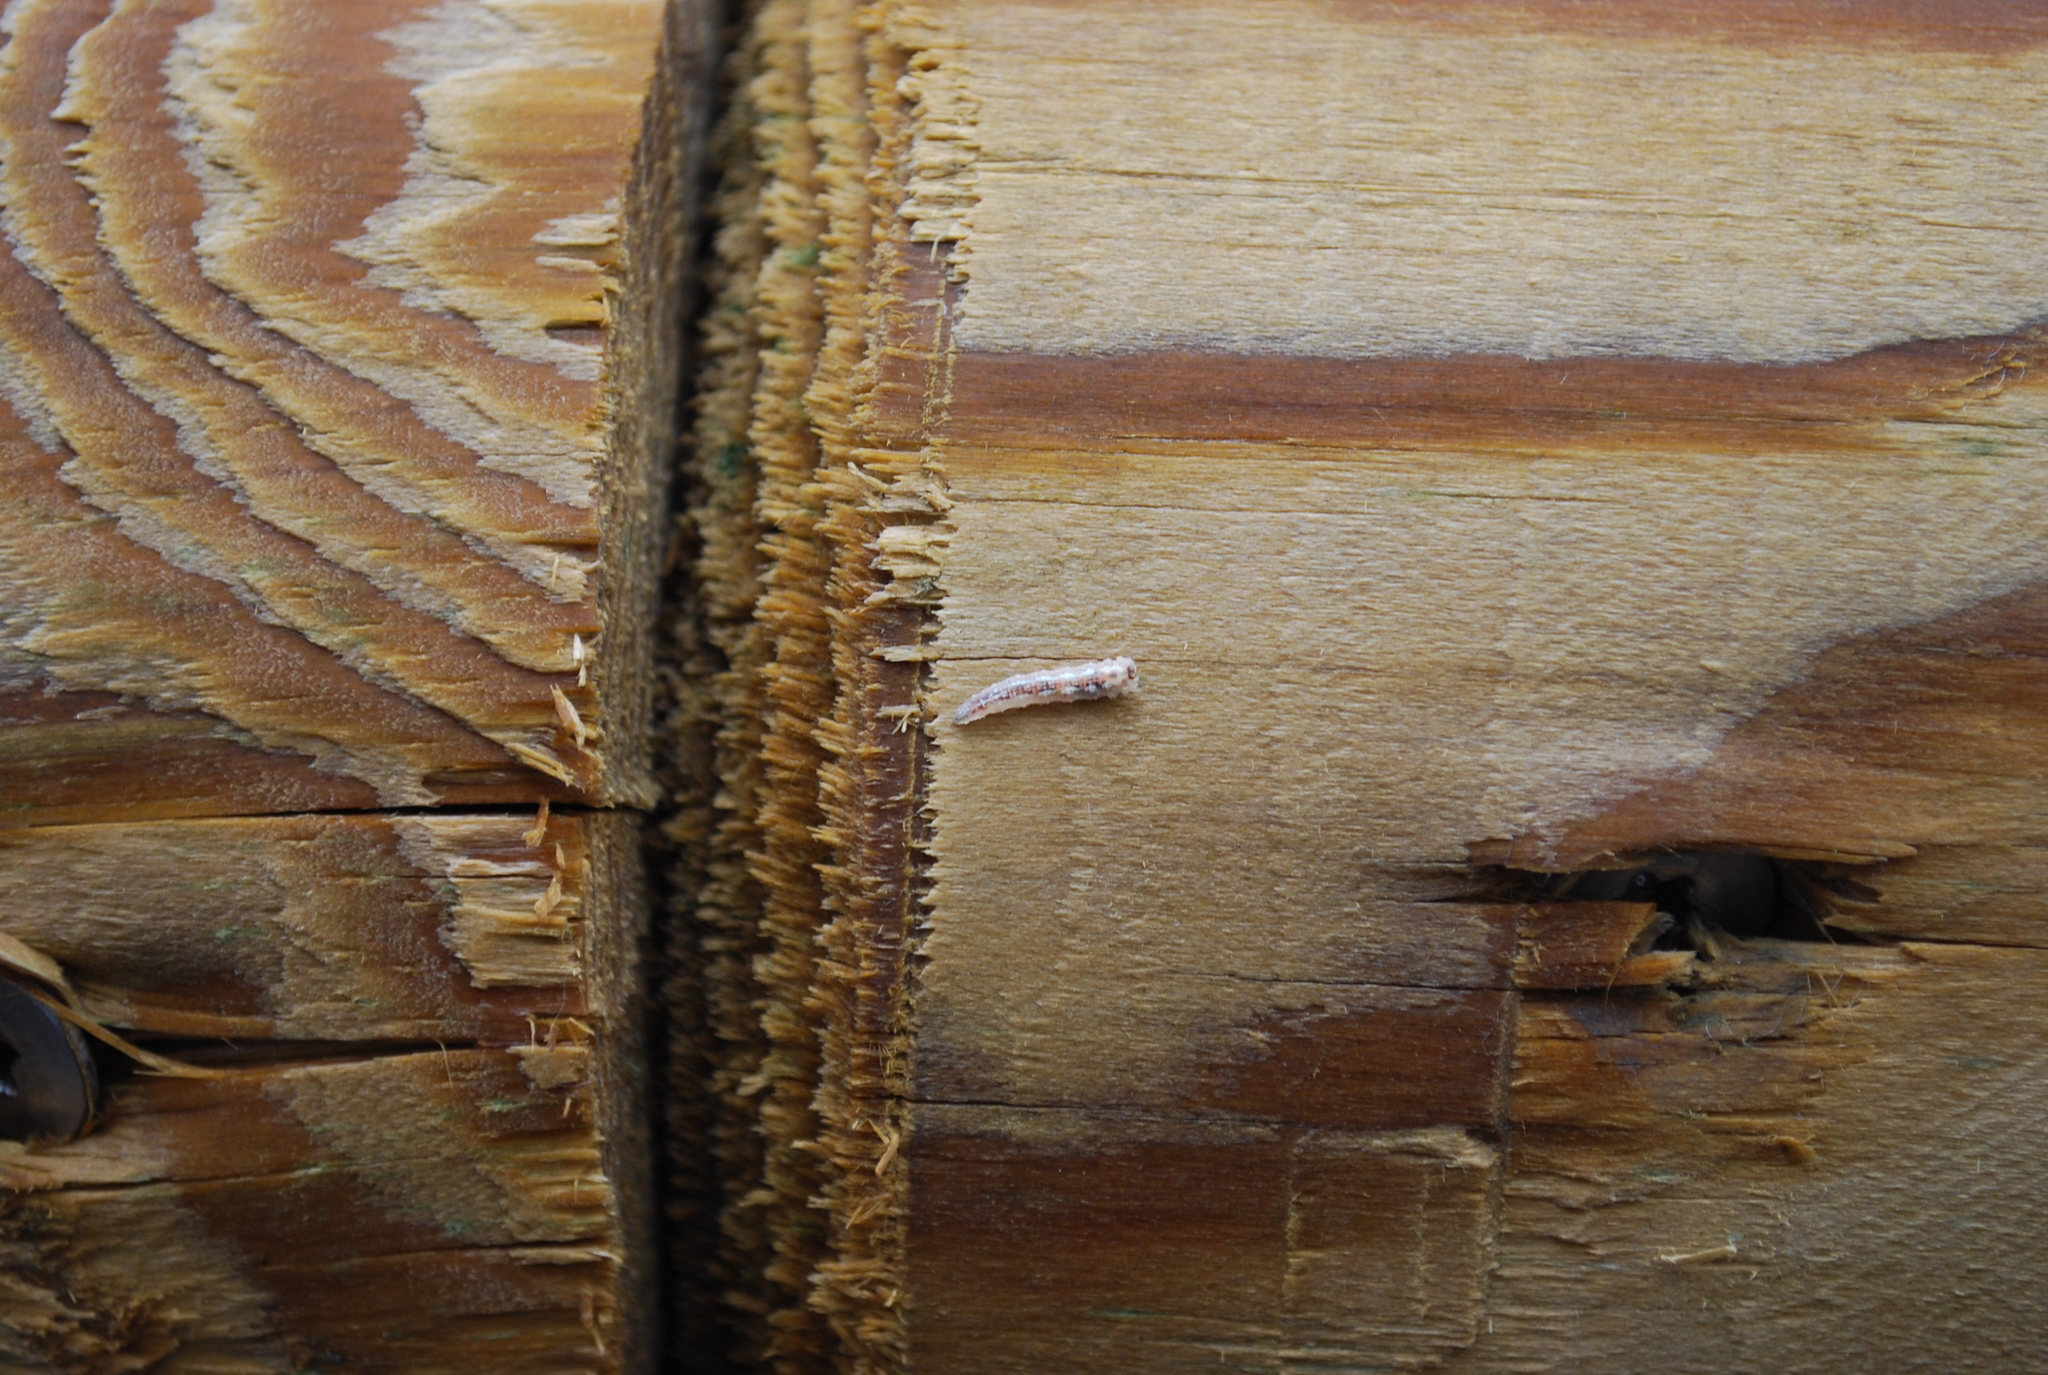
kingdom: Animalia
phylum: Arthropoda
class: Insecta
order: Diptera
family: Syrphidae
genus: Syrphus
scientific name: Syrphus
